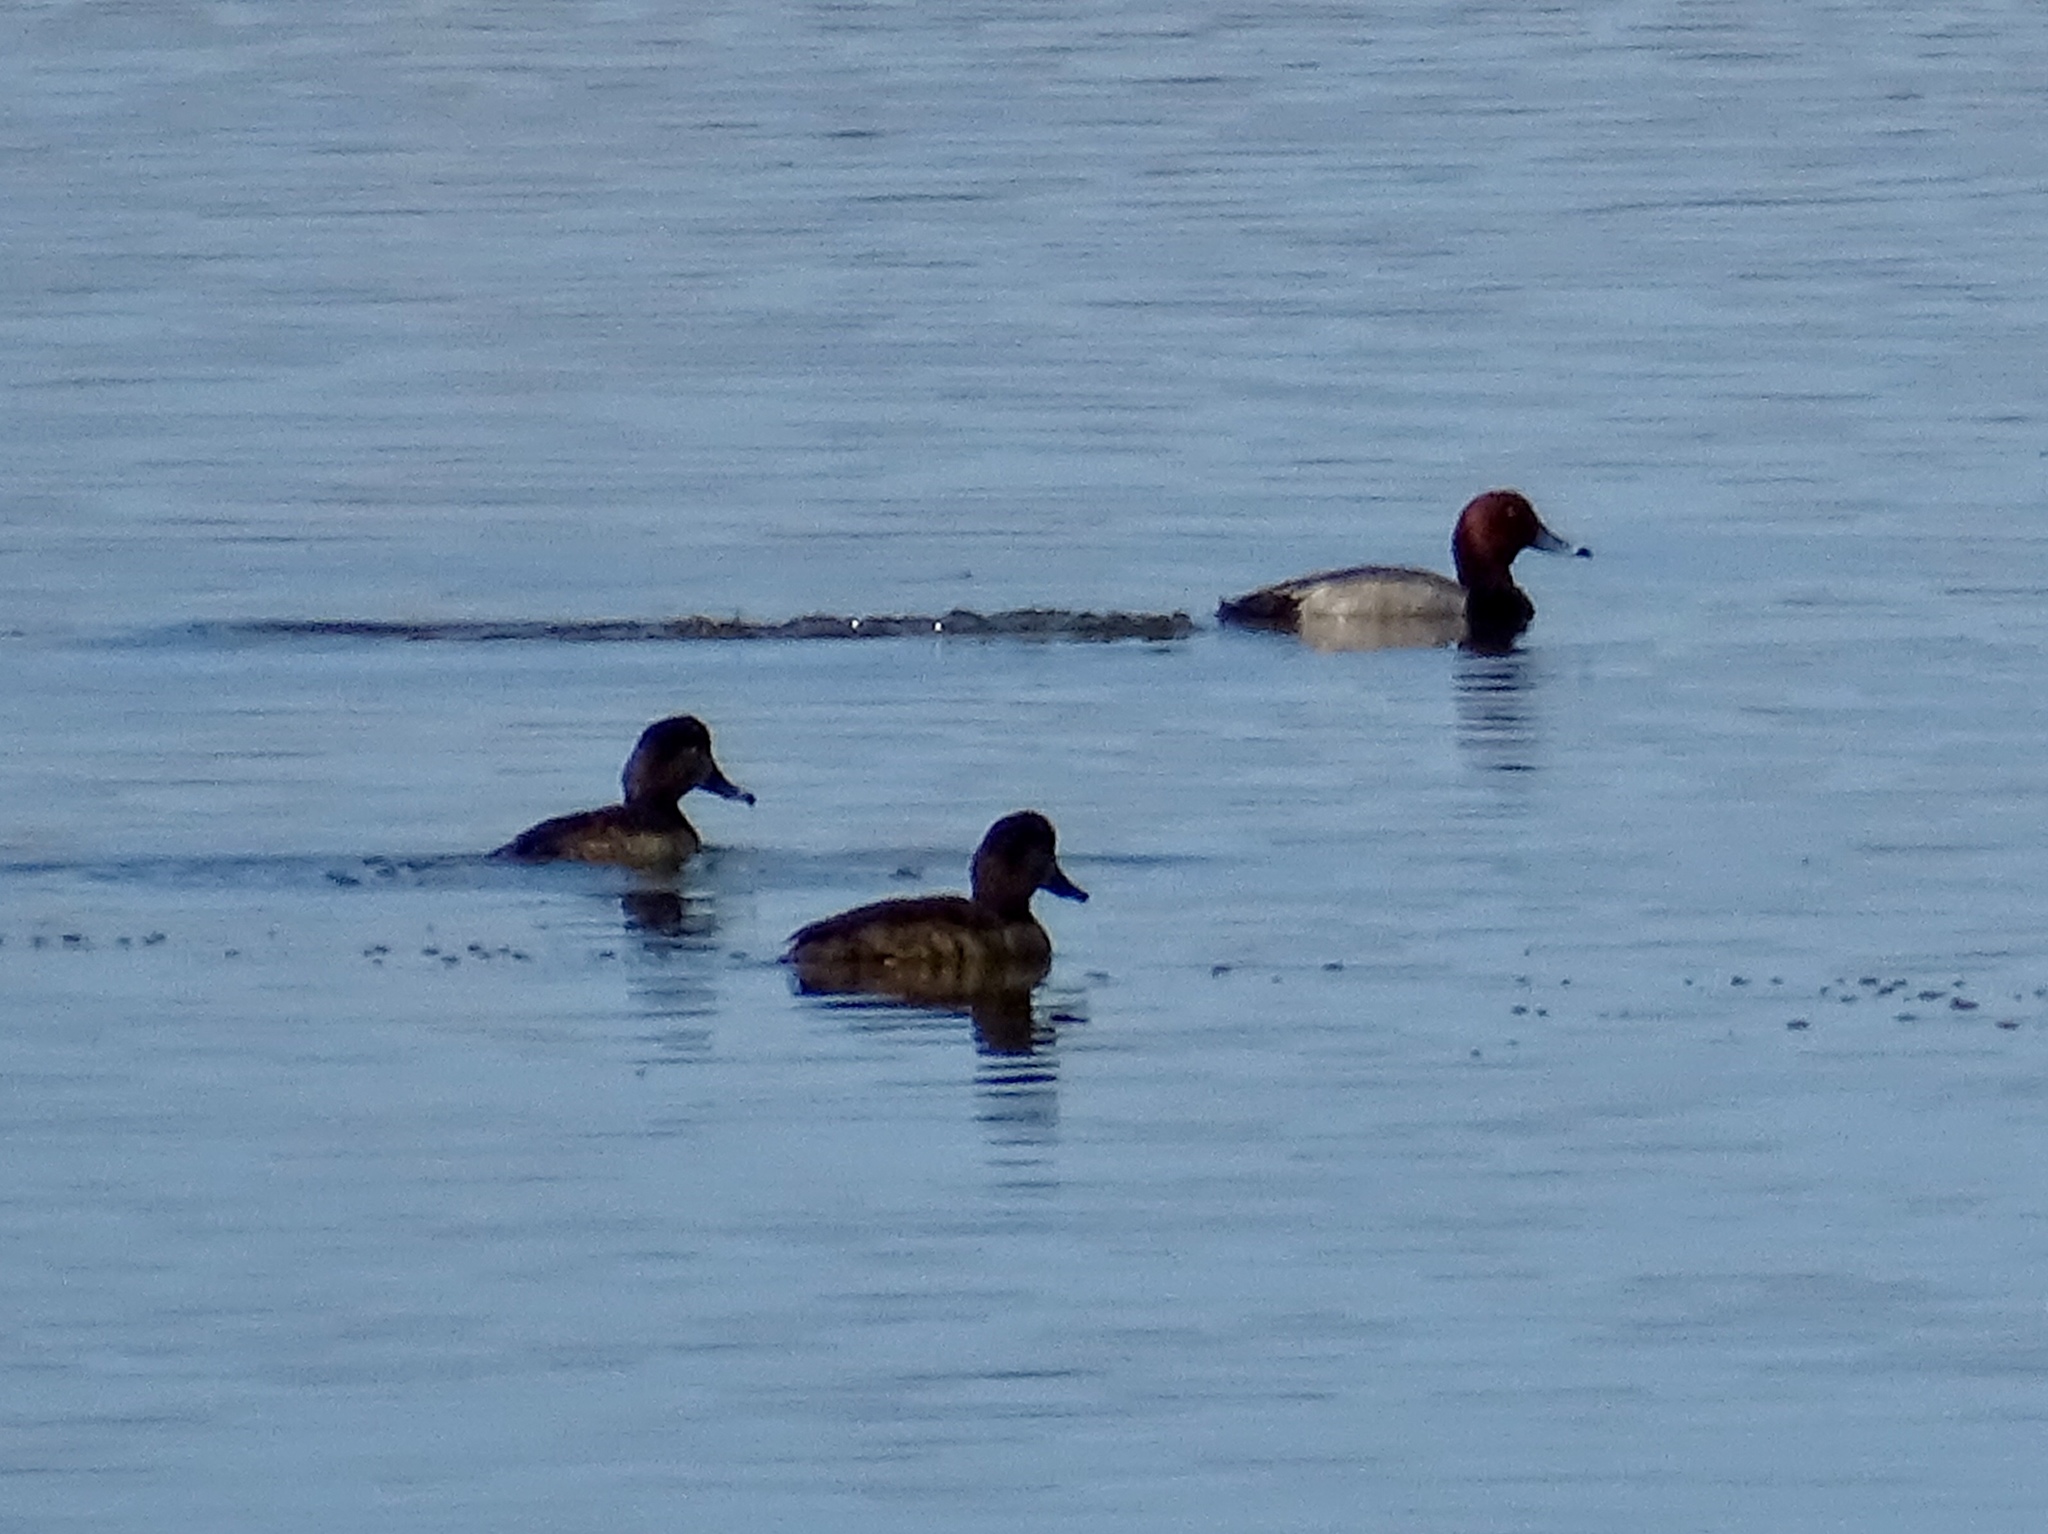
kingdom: Animalia
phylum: Chordata
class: Aves
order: Anseriformes
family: Anatidae
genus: Aythya
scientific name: Aythya americana
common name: Redhead
